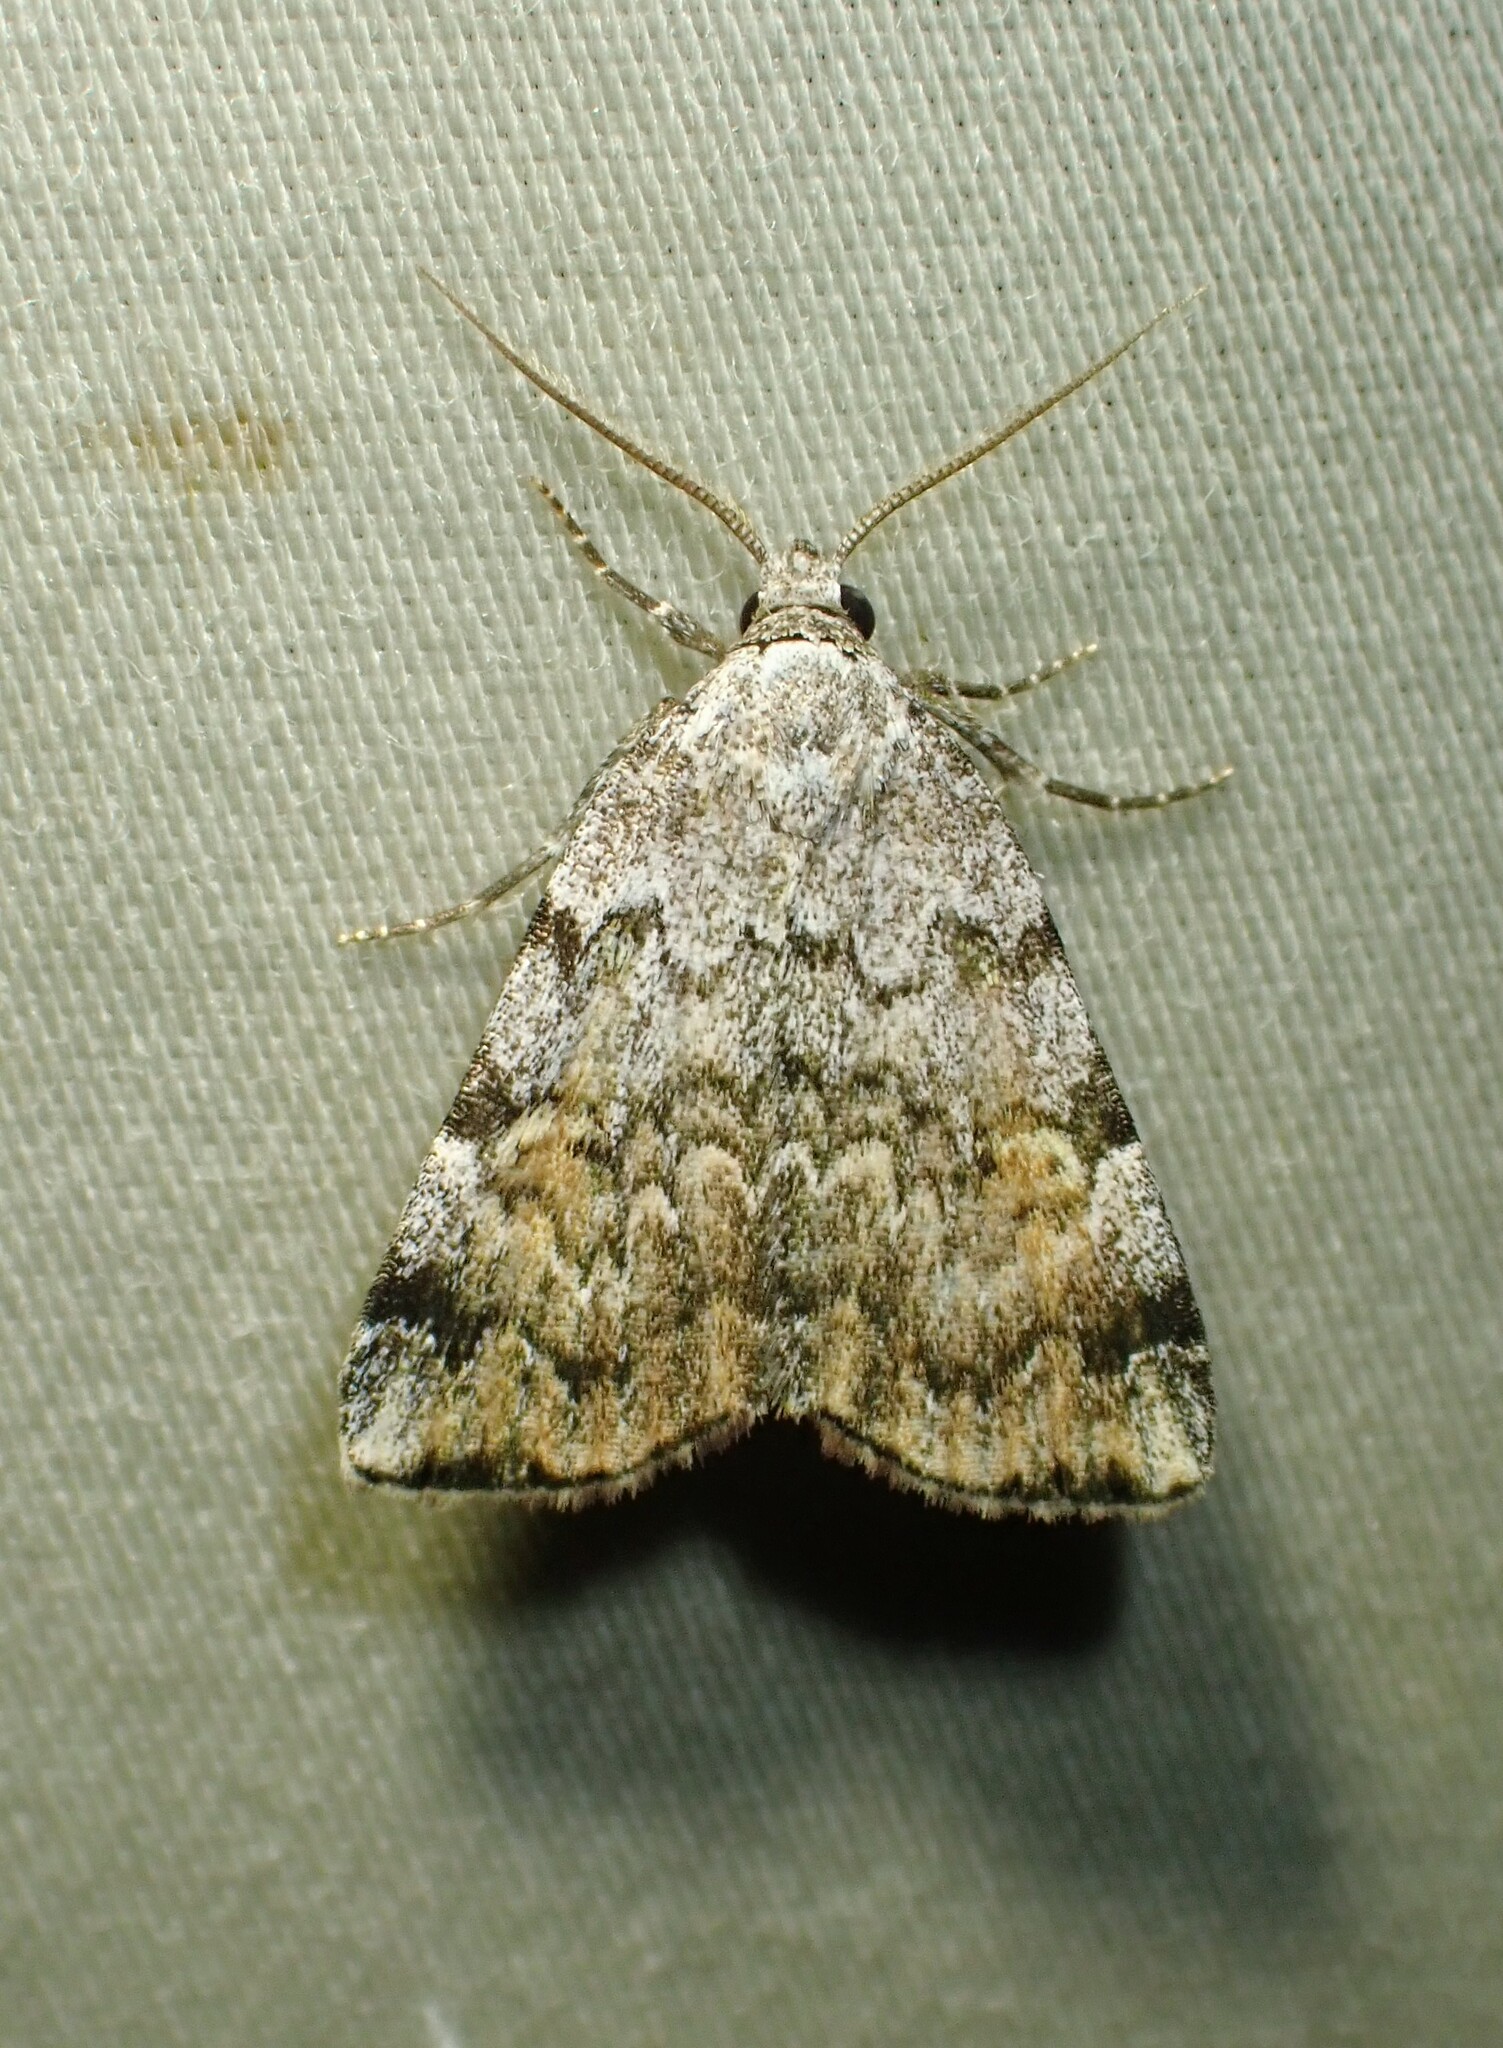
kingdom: Animalia
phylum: Arthropoda
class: Insecta
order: Lepidoptera
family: Erebidae
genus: Idia
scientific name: Idia americalis
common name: American idia moth
